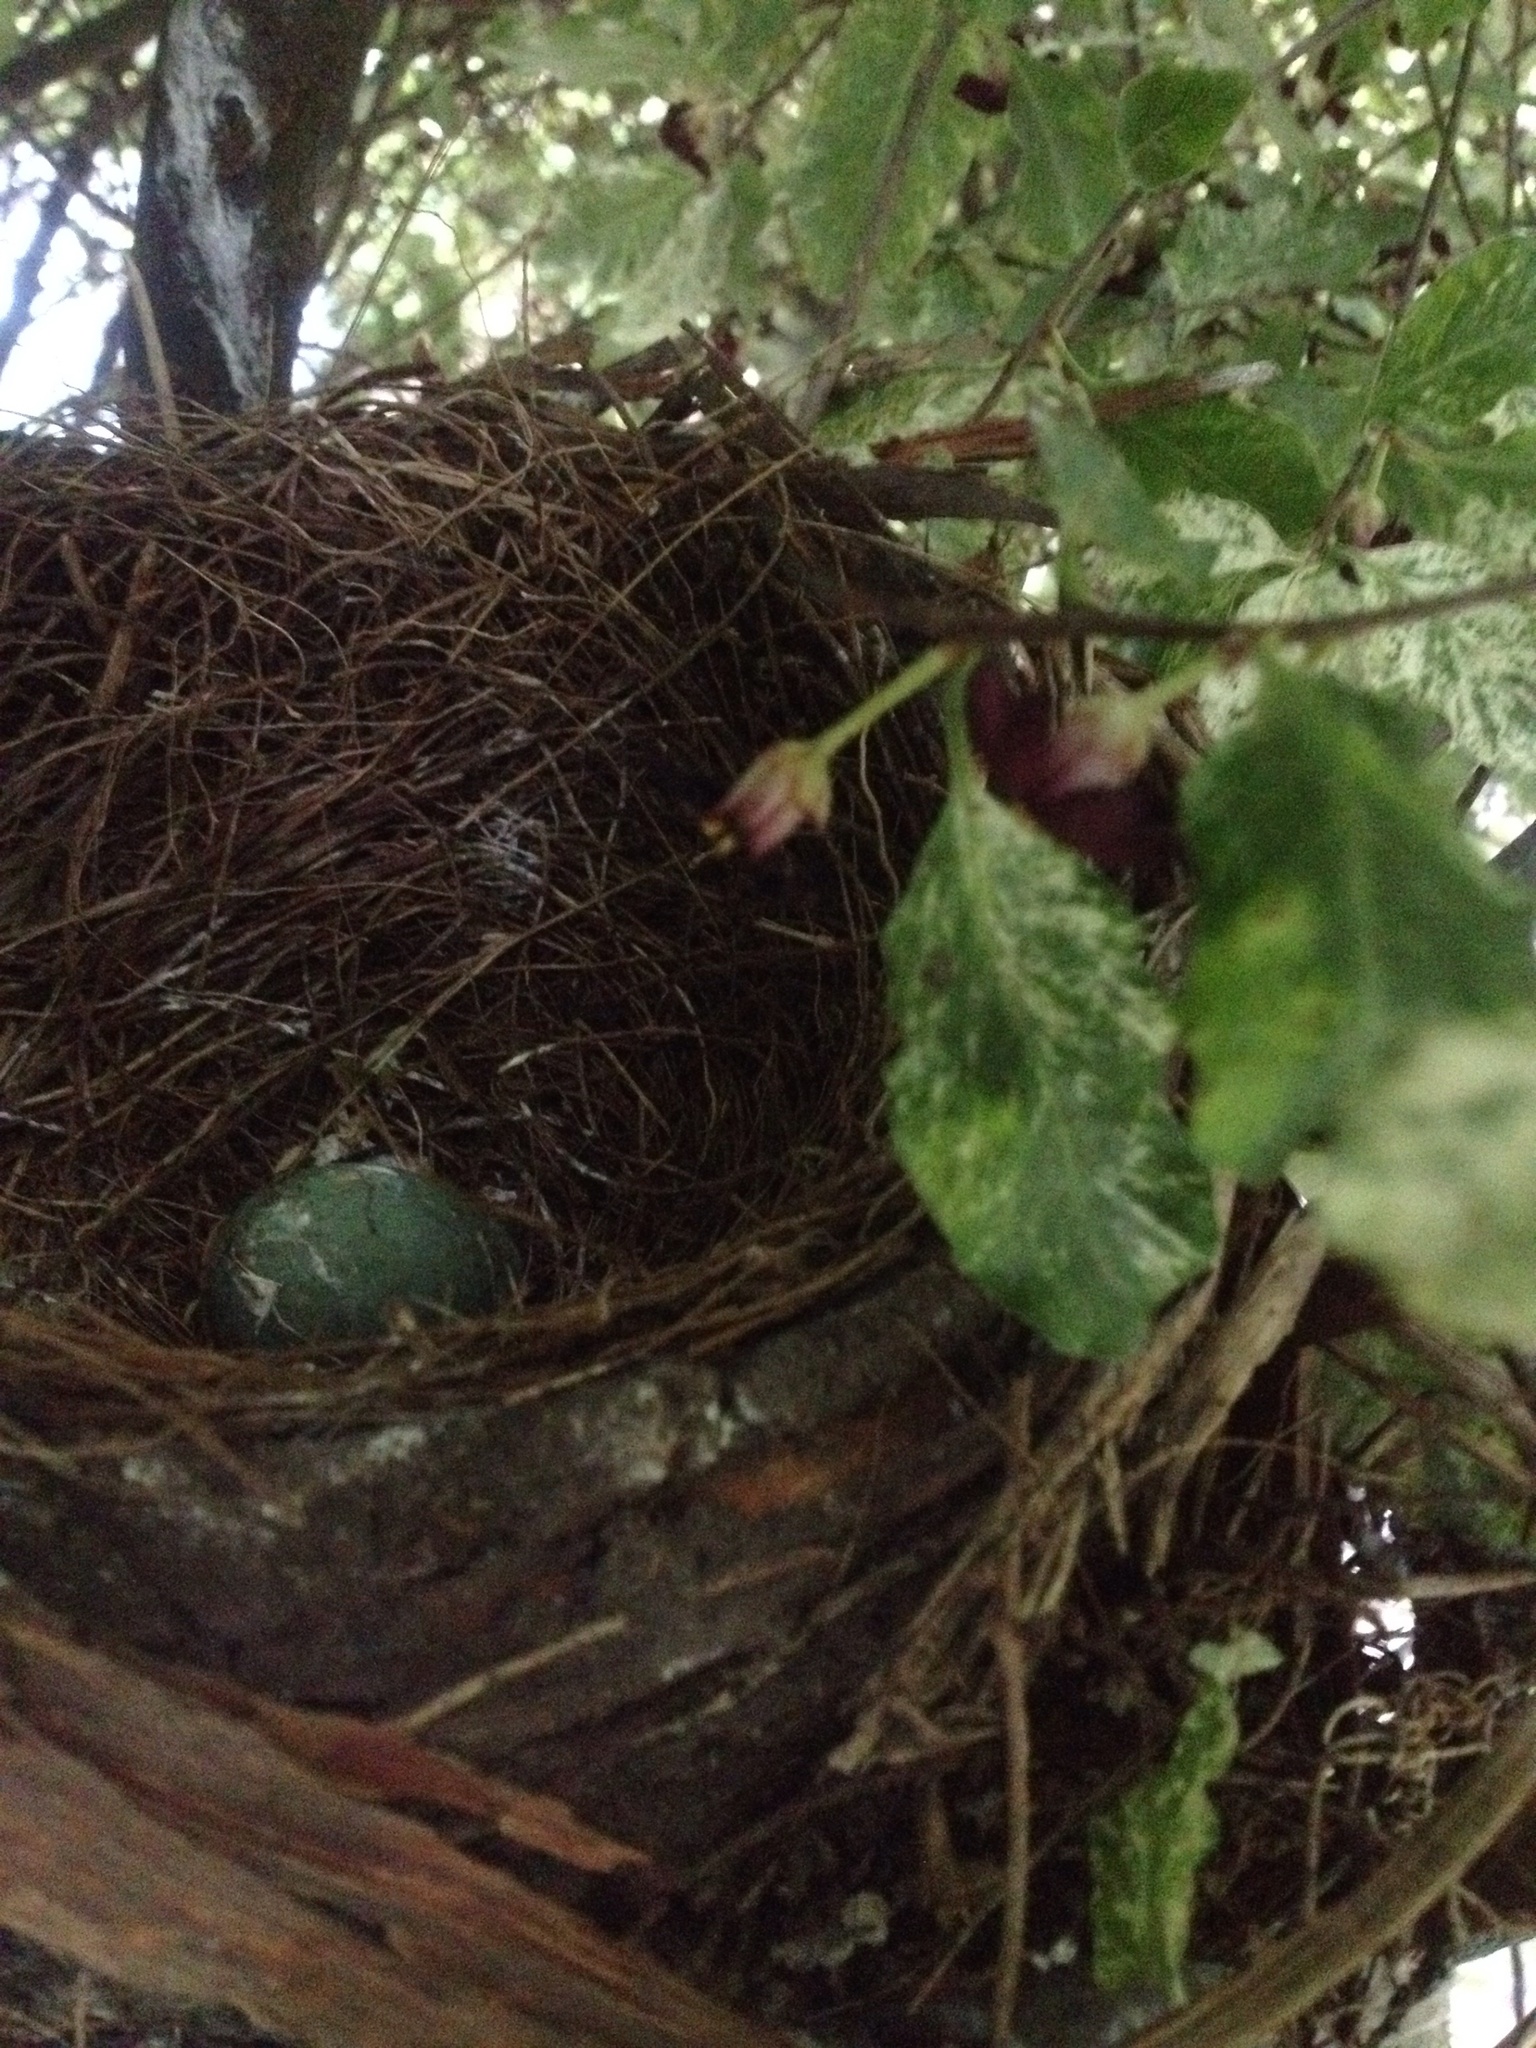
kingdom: Animalia
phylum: Chordata
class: Aves
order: Passeriformes
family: Turdidae
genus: Turdus
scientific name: Turdus merula
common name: Common blackbird
